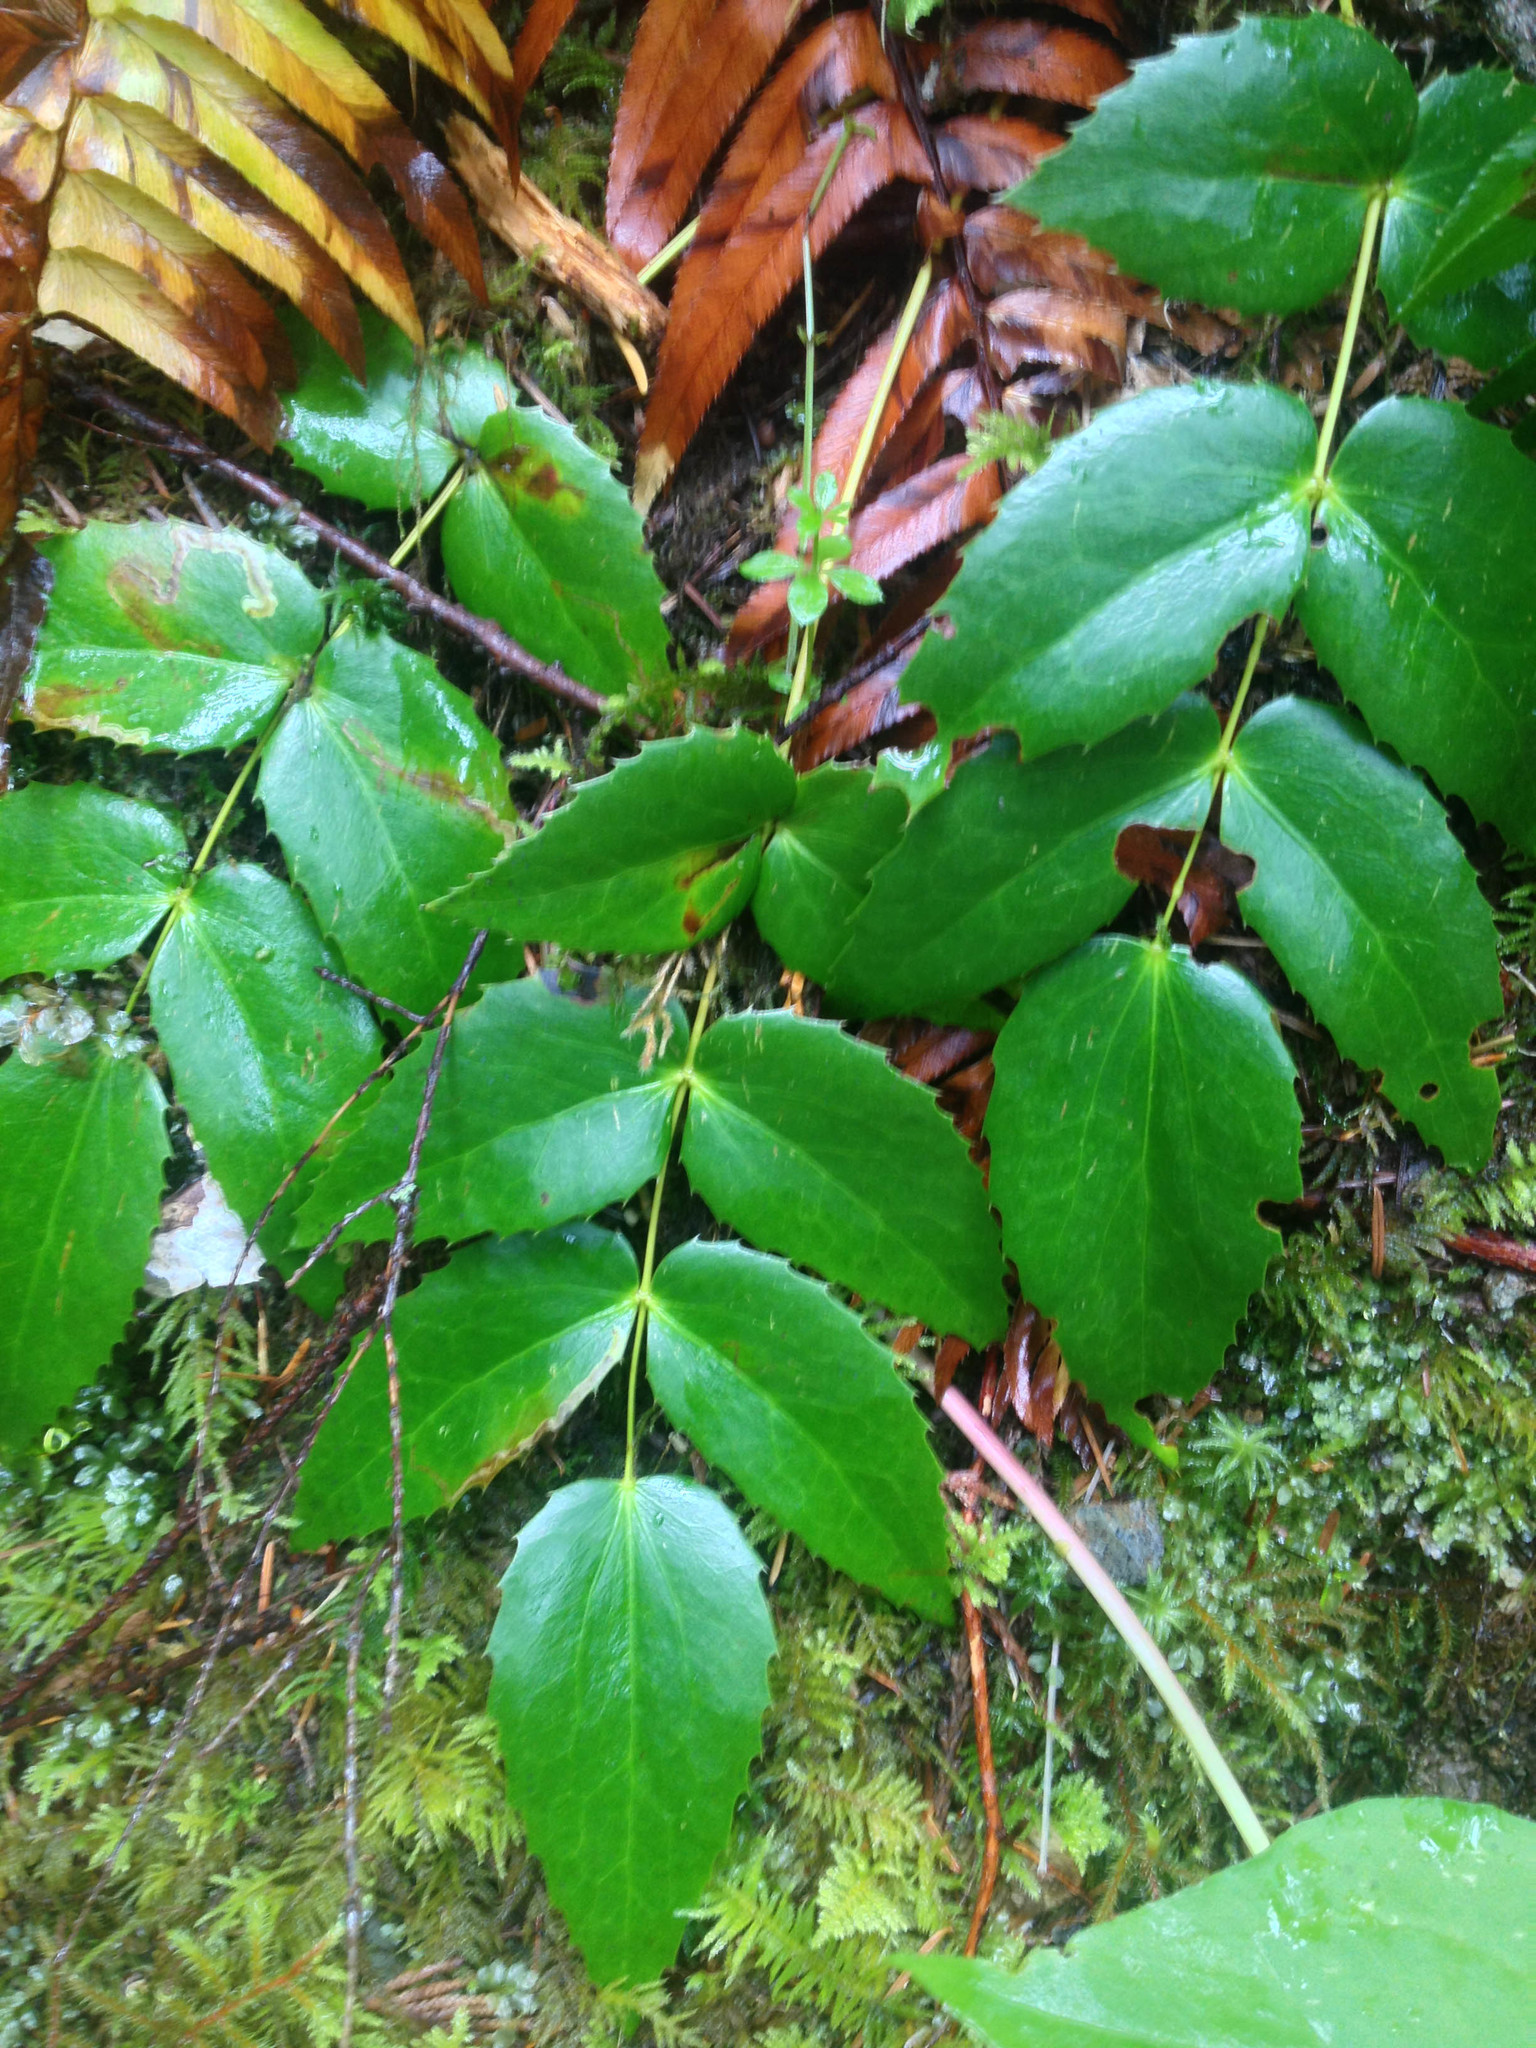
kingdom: Plantae
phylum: Tracheophyta
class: Magnoliopsida
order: Ranunculales
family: Berberidaceae
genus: Mahonia
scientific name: Mahonia nervosa
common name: Cascade oregon-grape
